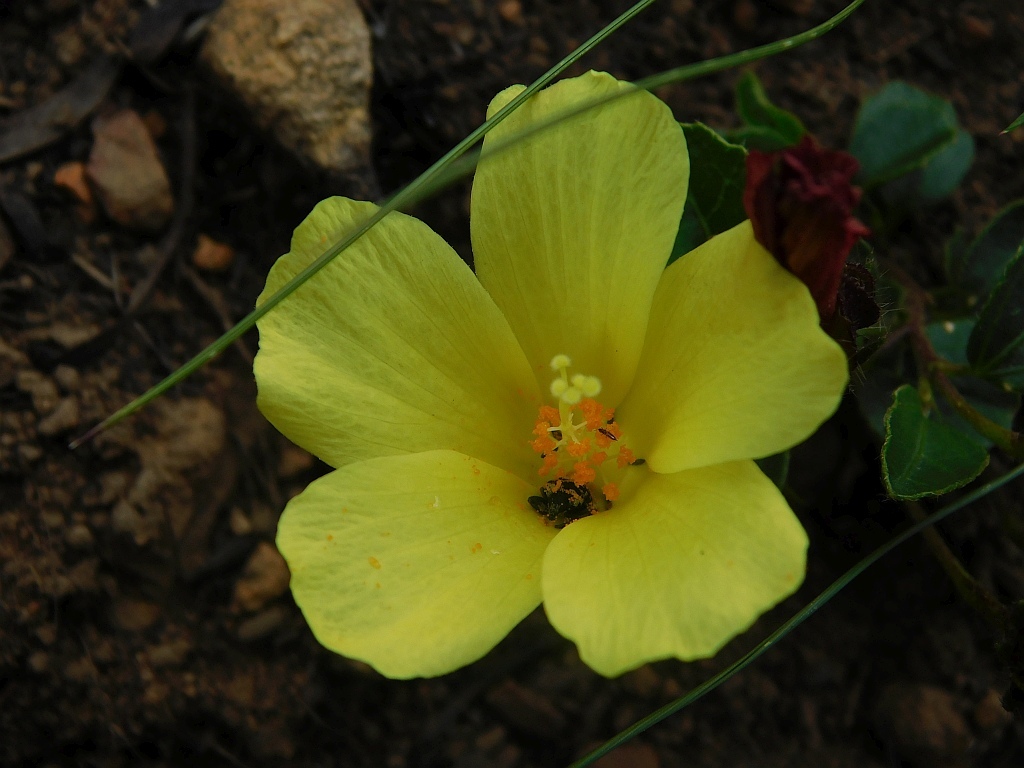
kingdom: Plantae
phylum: Tracheophyta
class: Magnoliopsida
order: Malvales
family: Malvaceae
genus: Hibiscus
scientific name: Hibiscus aethiopicus
